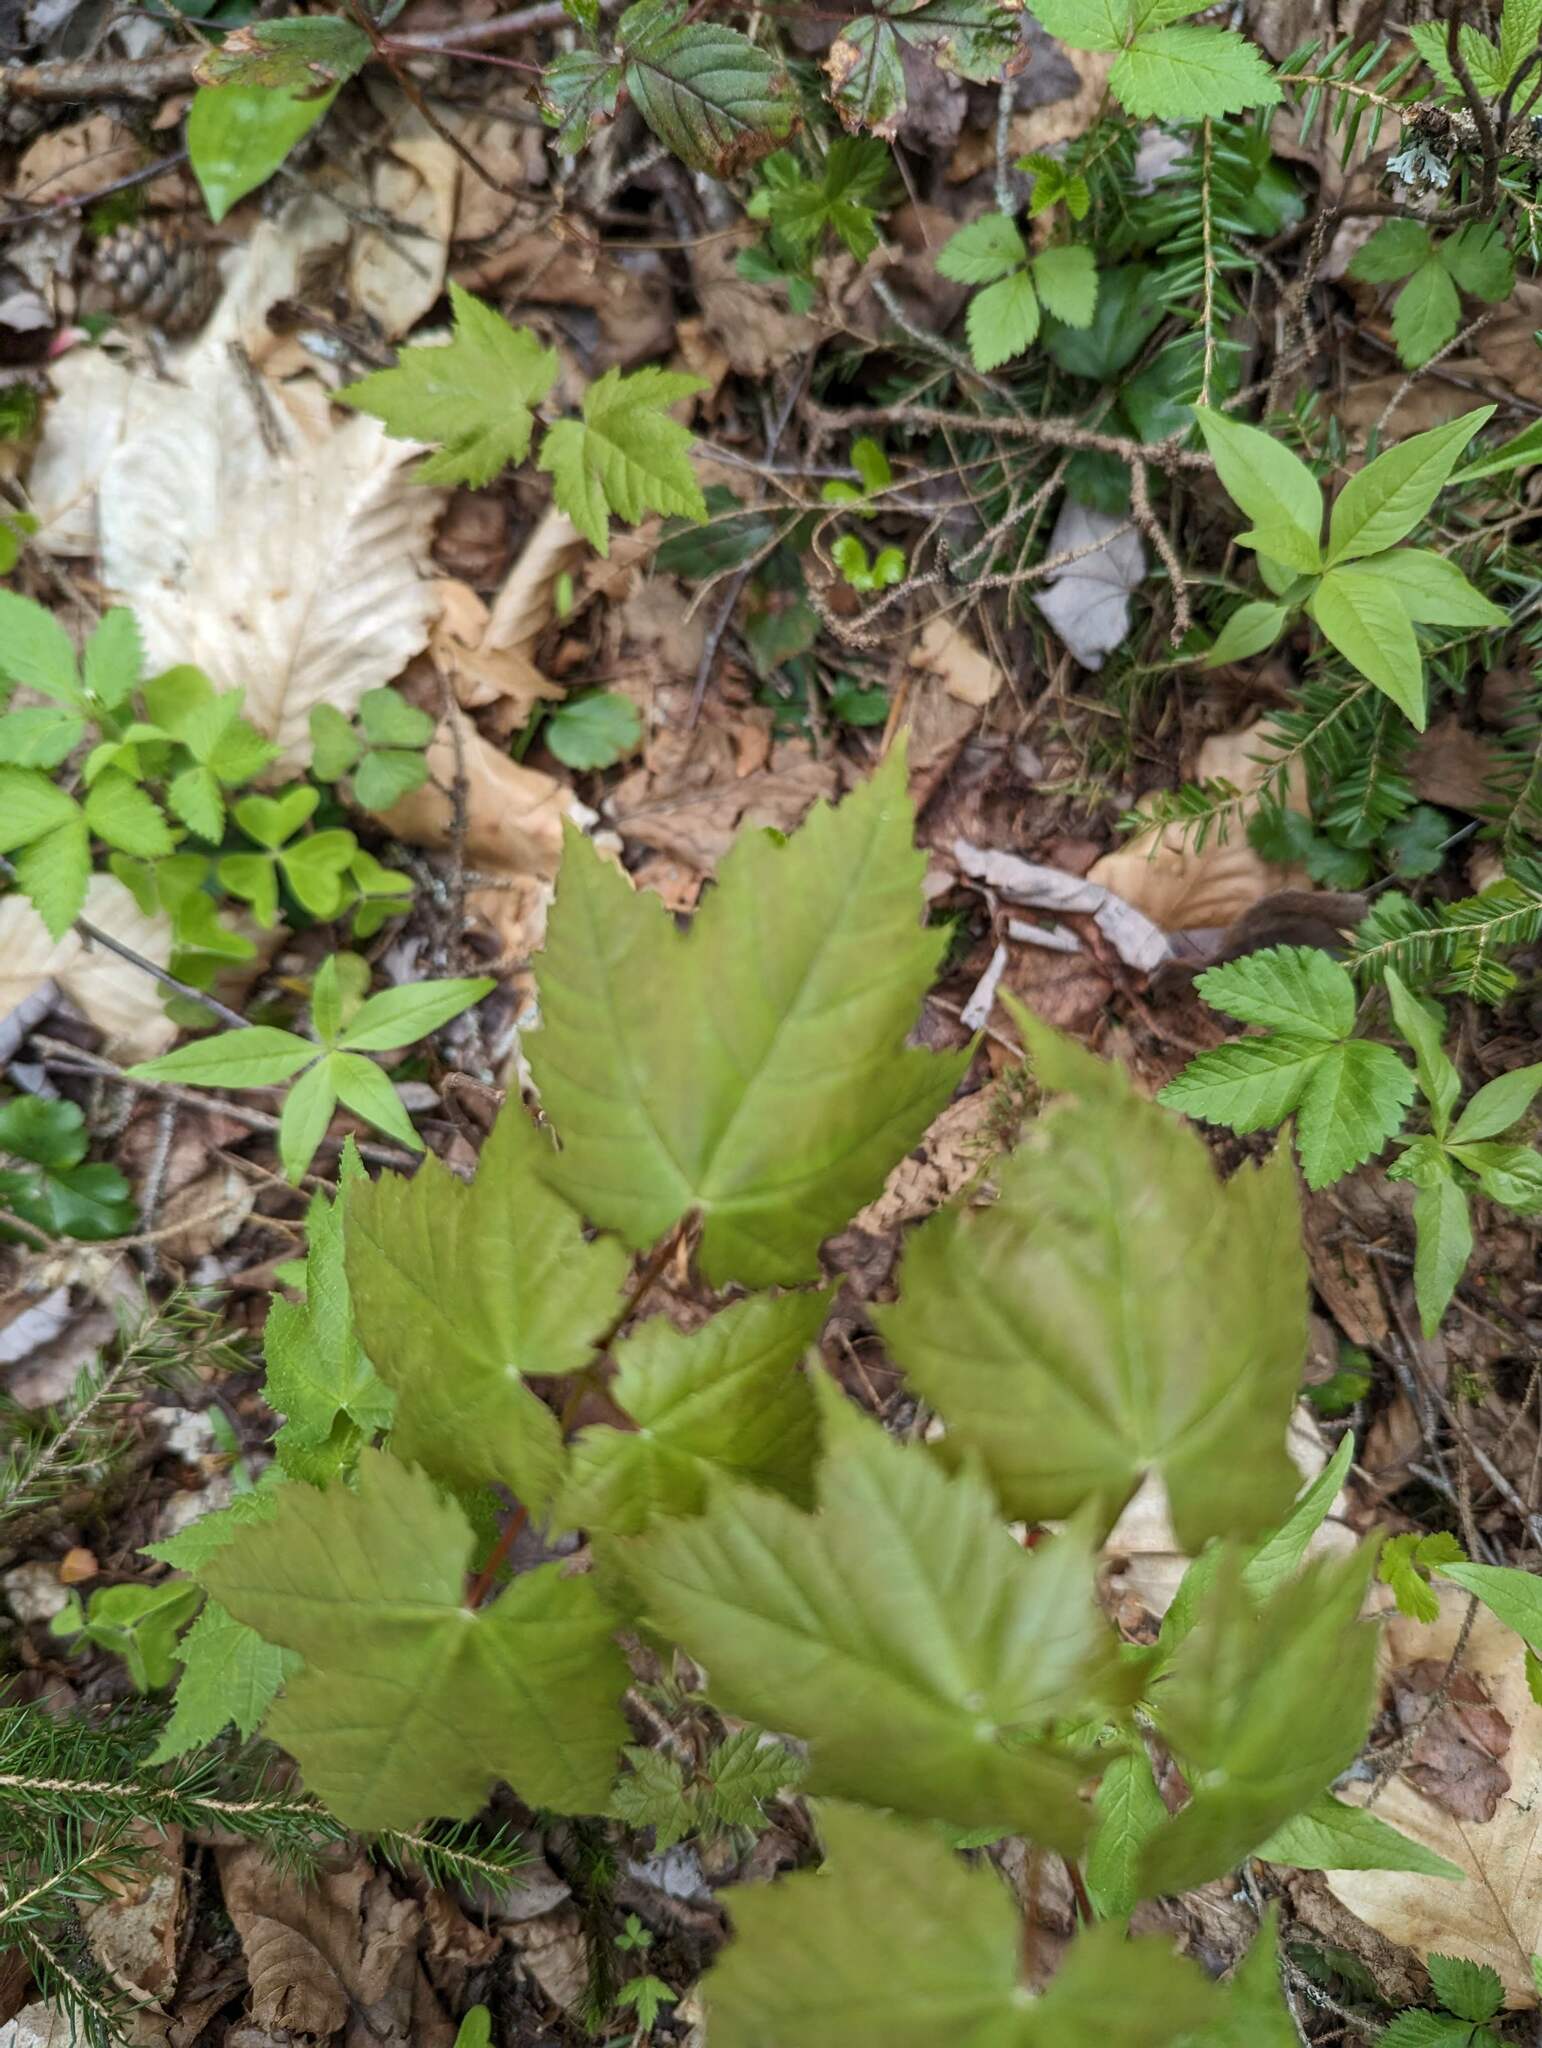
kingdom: Plantae
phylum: Tracheophyta
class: Magnoliopsida
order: Sapindales
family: Sapindaceae
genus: Acer
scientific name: Acer rubrum
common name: Red maple
